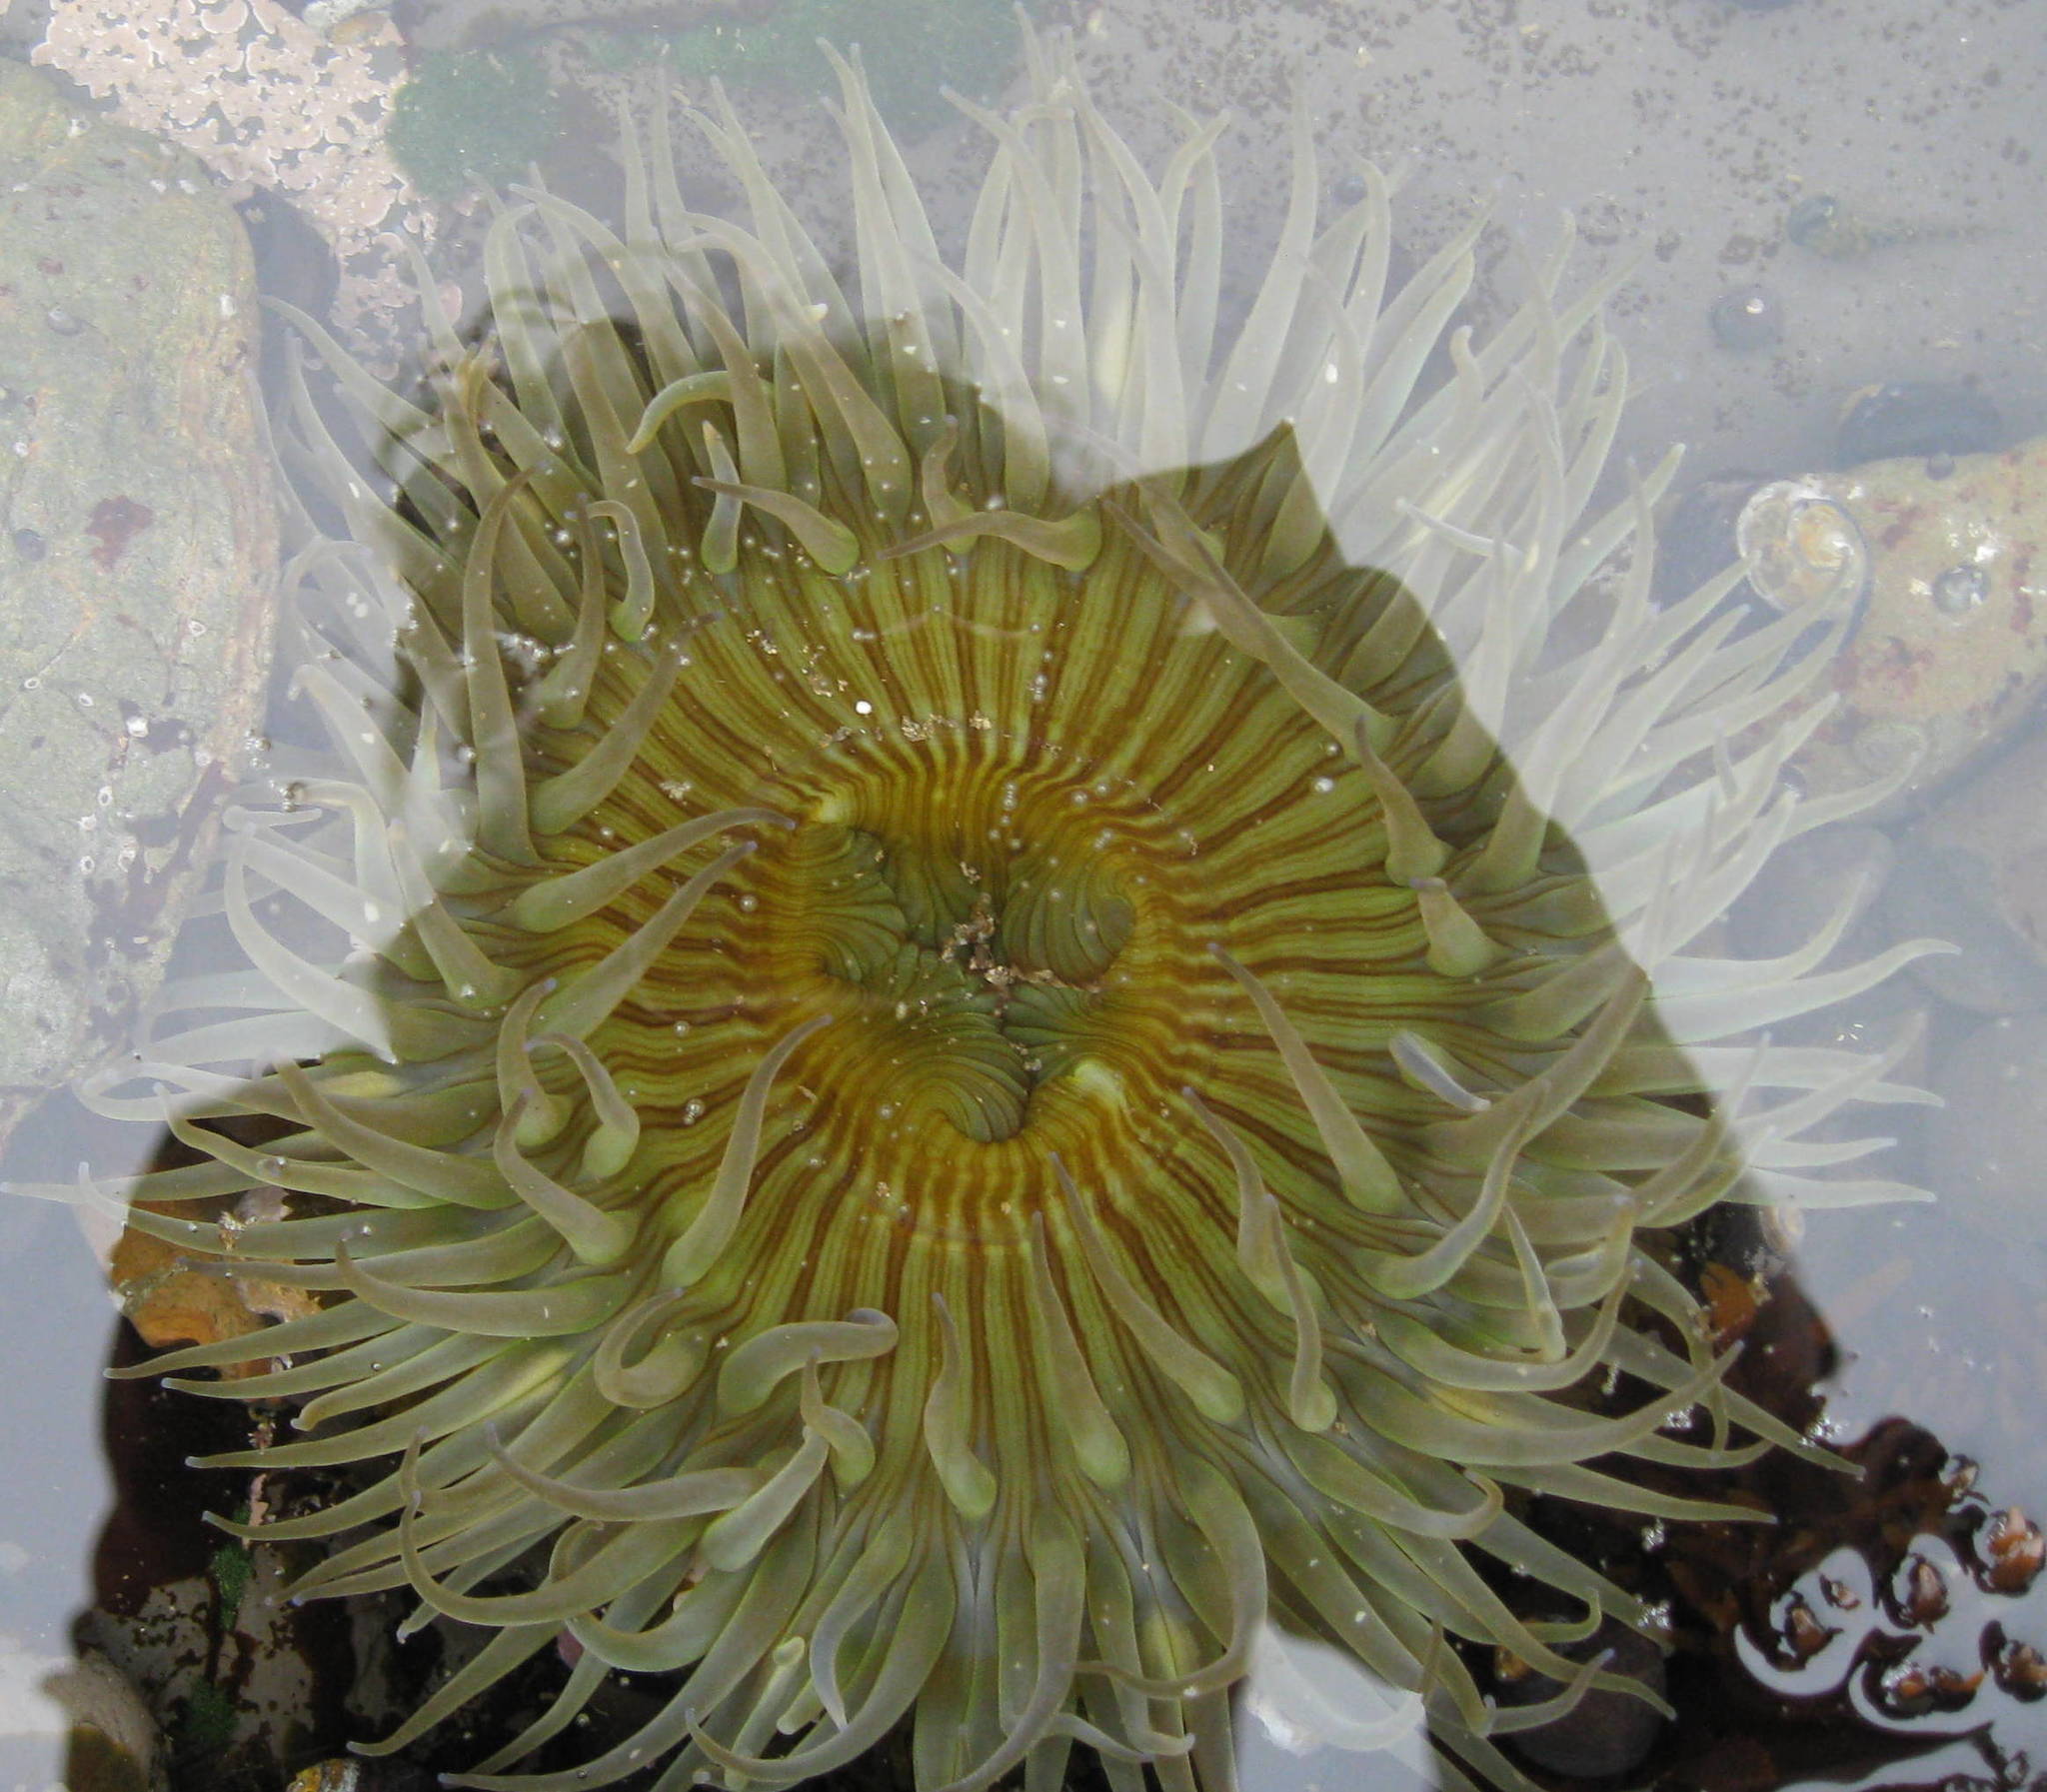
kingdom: Animalia
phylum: Cnidaria
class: Anthozoa
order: Actiniaria
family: Actiniidae
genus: Anthopleura
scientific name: Anthopleura sola
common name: Sun anemone
